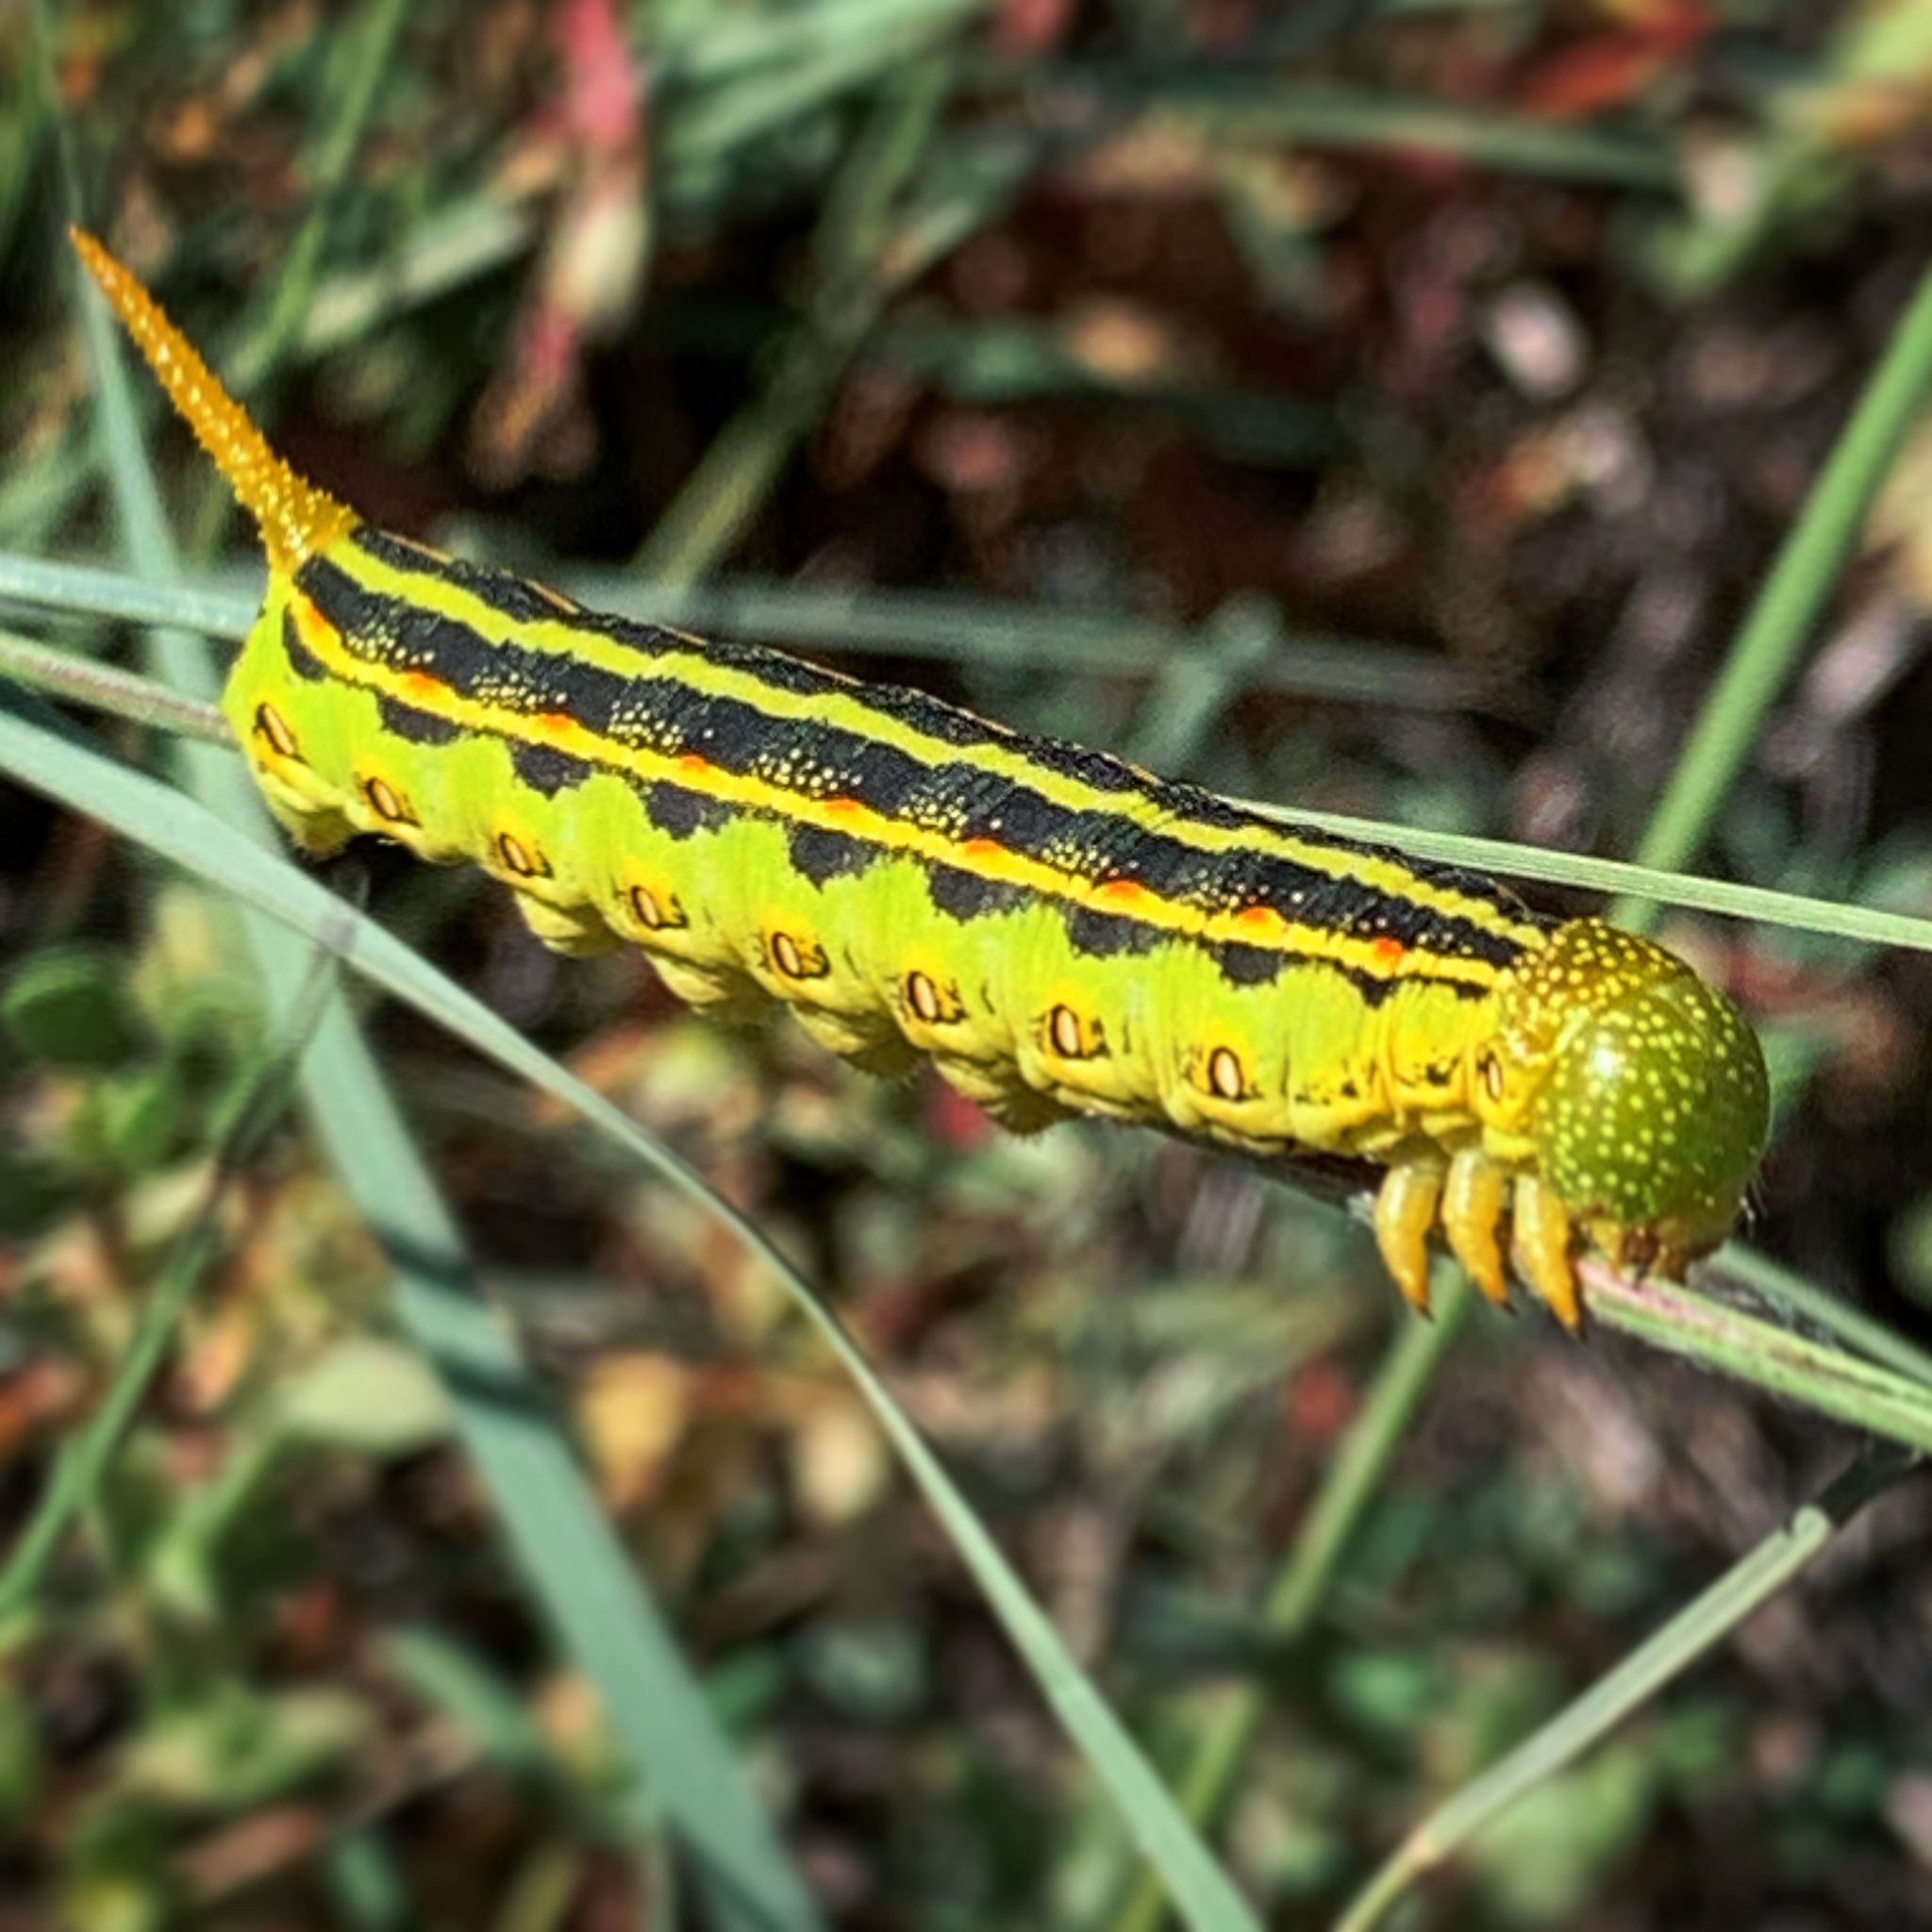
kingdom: Animalia
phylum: Arthropoda
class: Insecta
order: Lepidoptera
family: Sphingidae
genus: Hyles
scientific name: Hyles lineata
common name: White-lined sphinx
